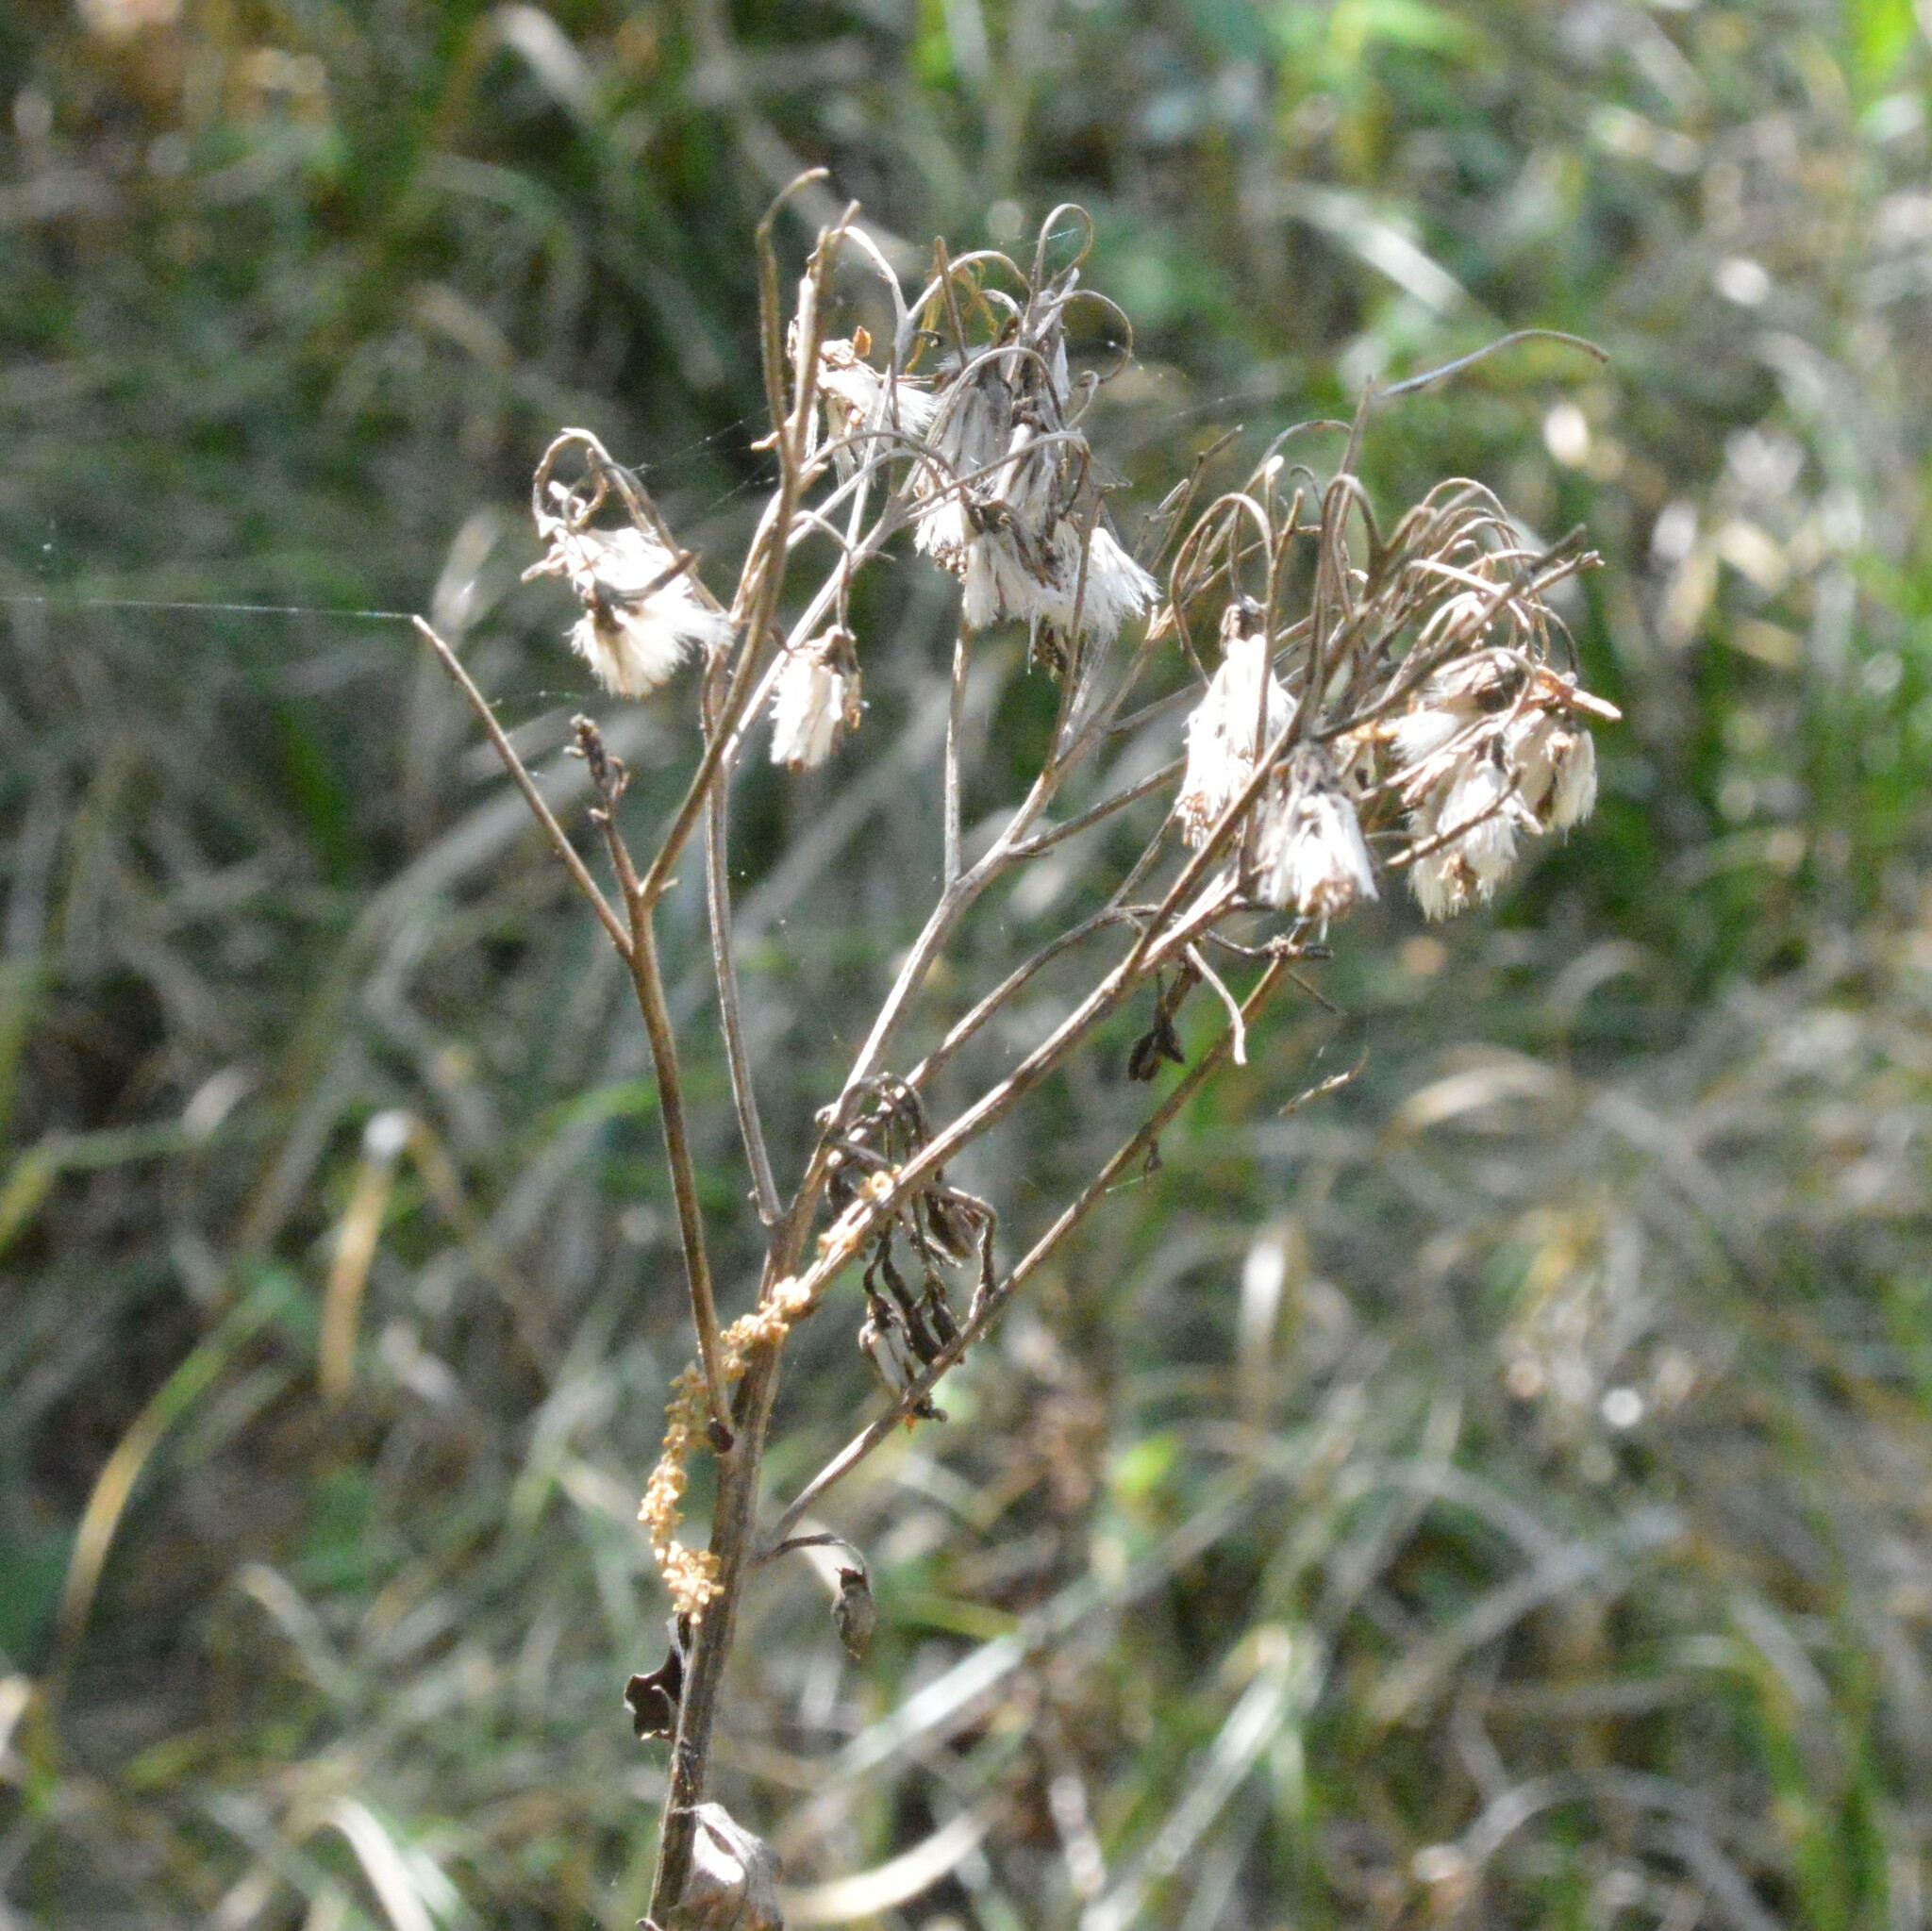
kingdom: Plantae
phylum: Tracheophyta
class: Magnoliopsida
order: Asterales
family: Asteraceae
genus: Arnoglossum
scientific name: Arnoglossum ovatum
